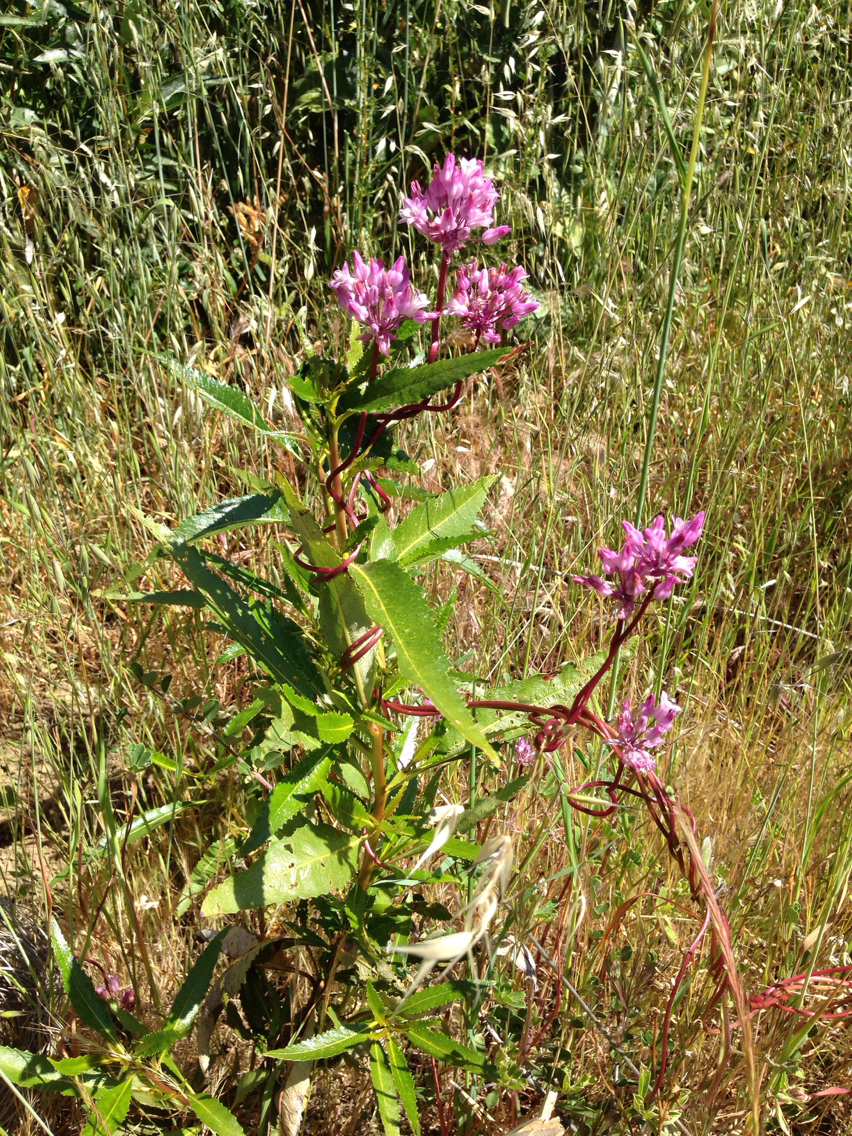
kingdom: Plantae
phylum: Tracheophyta
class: Liliopsida
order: Asparagales
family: Asparagaceae
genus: Dichelostemma
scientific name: Dichelostemma volubile
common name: Trining brodiaea
